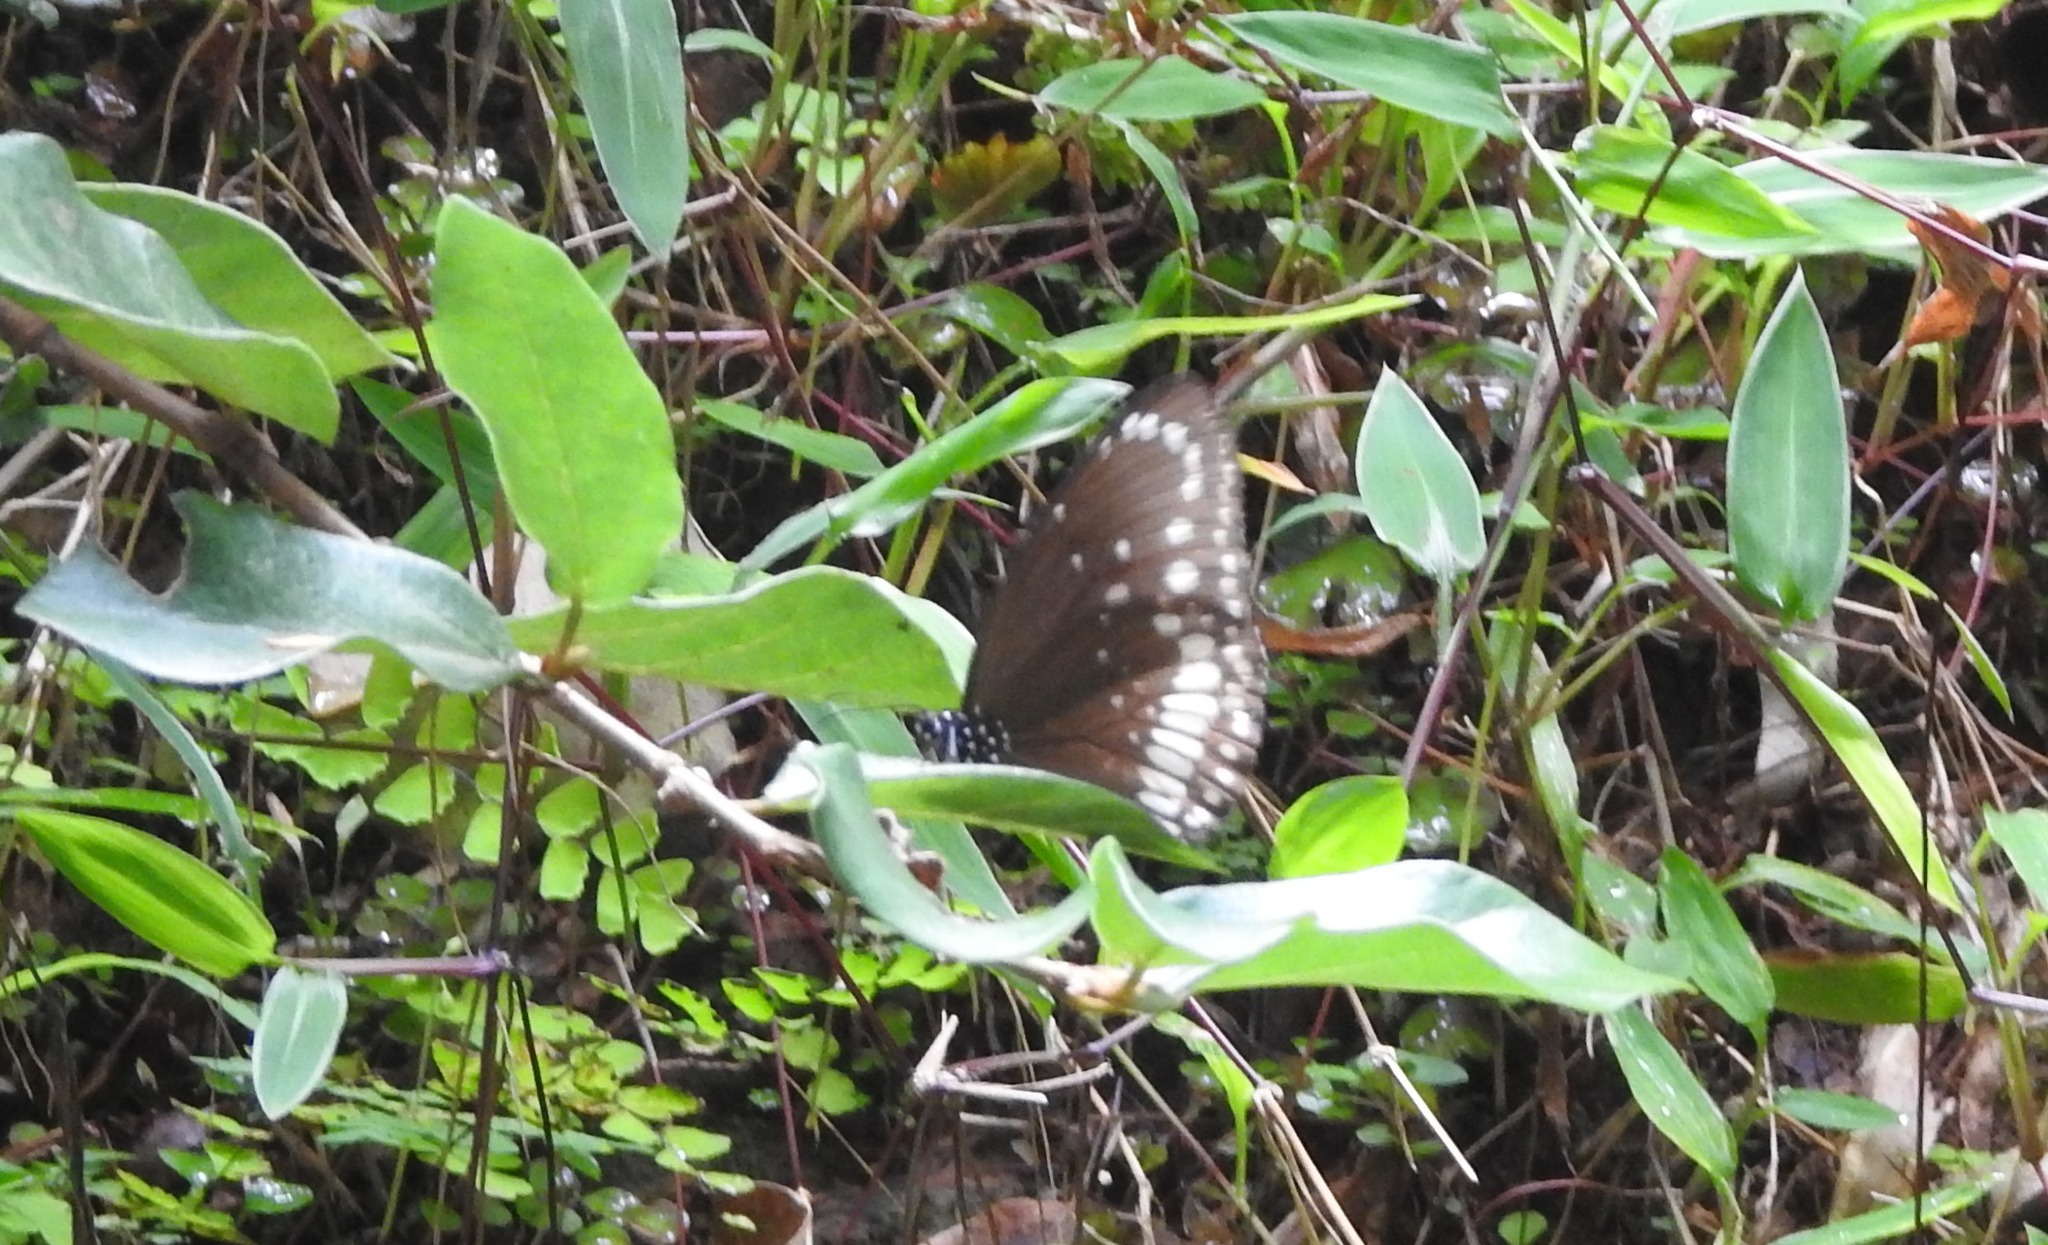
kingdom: Animalia
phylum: Arthropoda
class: Insecta
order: Lepidoptera
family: Nymphalidae
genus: Euploea
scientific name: Euploea core
